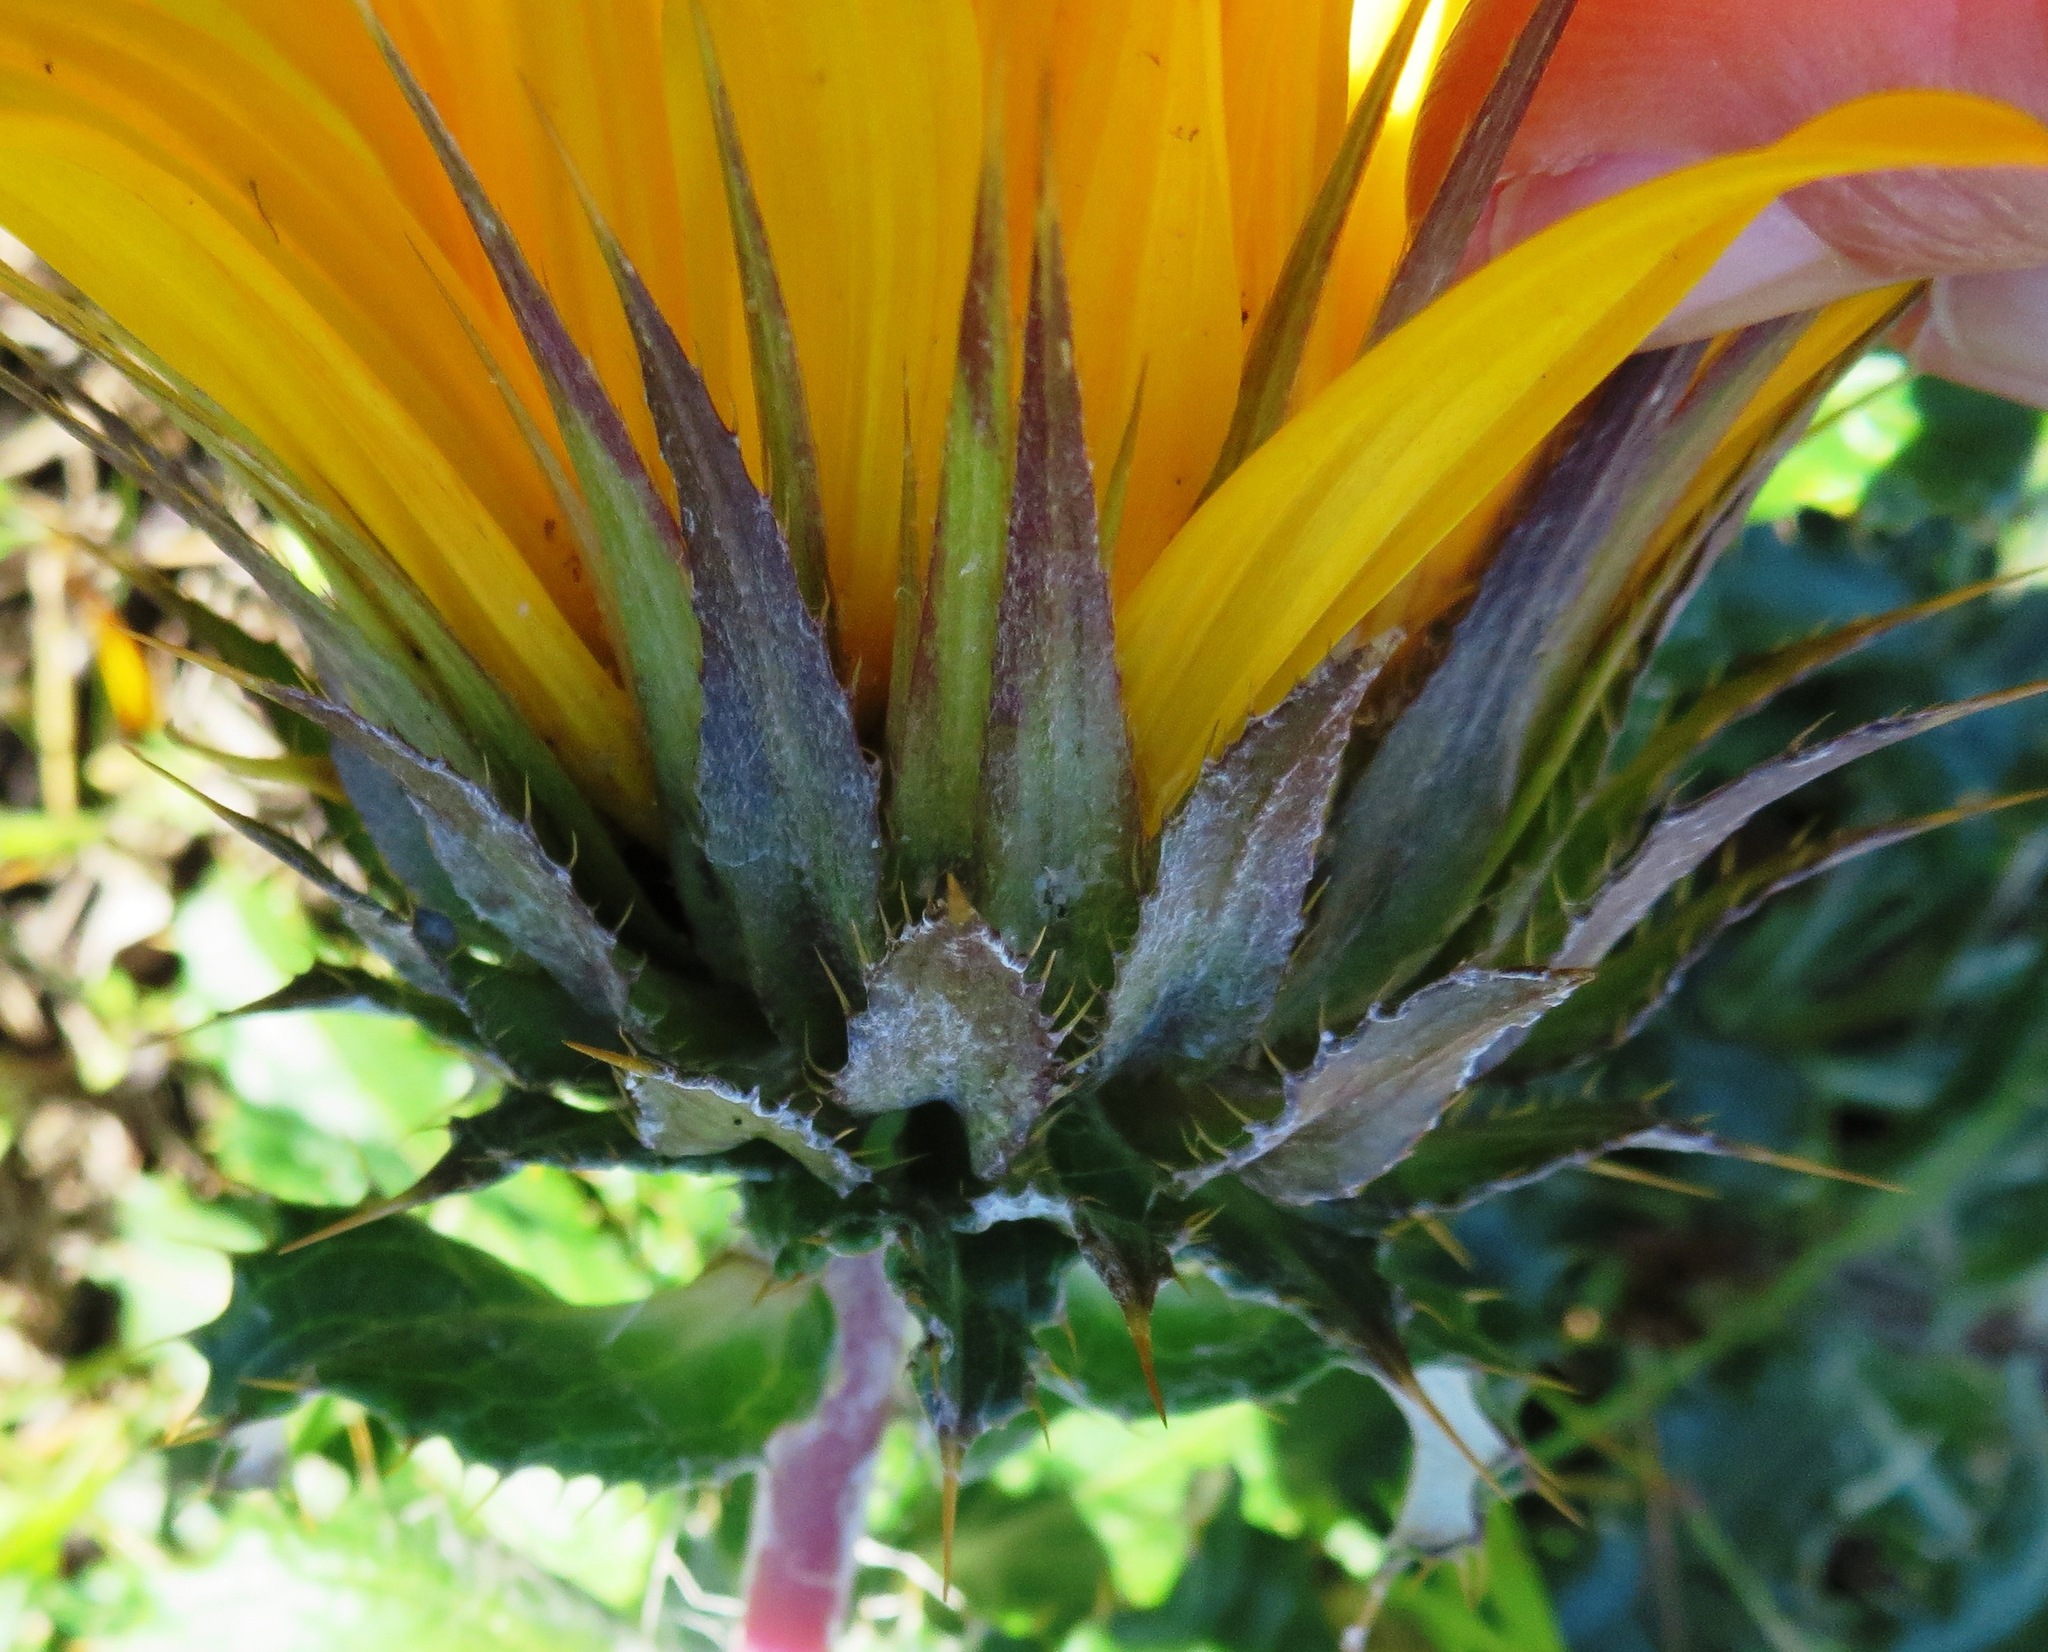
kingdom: Plantae
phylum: Tracheophyta
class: Magnoliopsida
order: Asterales
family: Asteraceae
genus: Berkheya
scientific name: Berkheya armata
